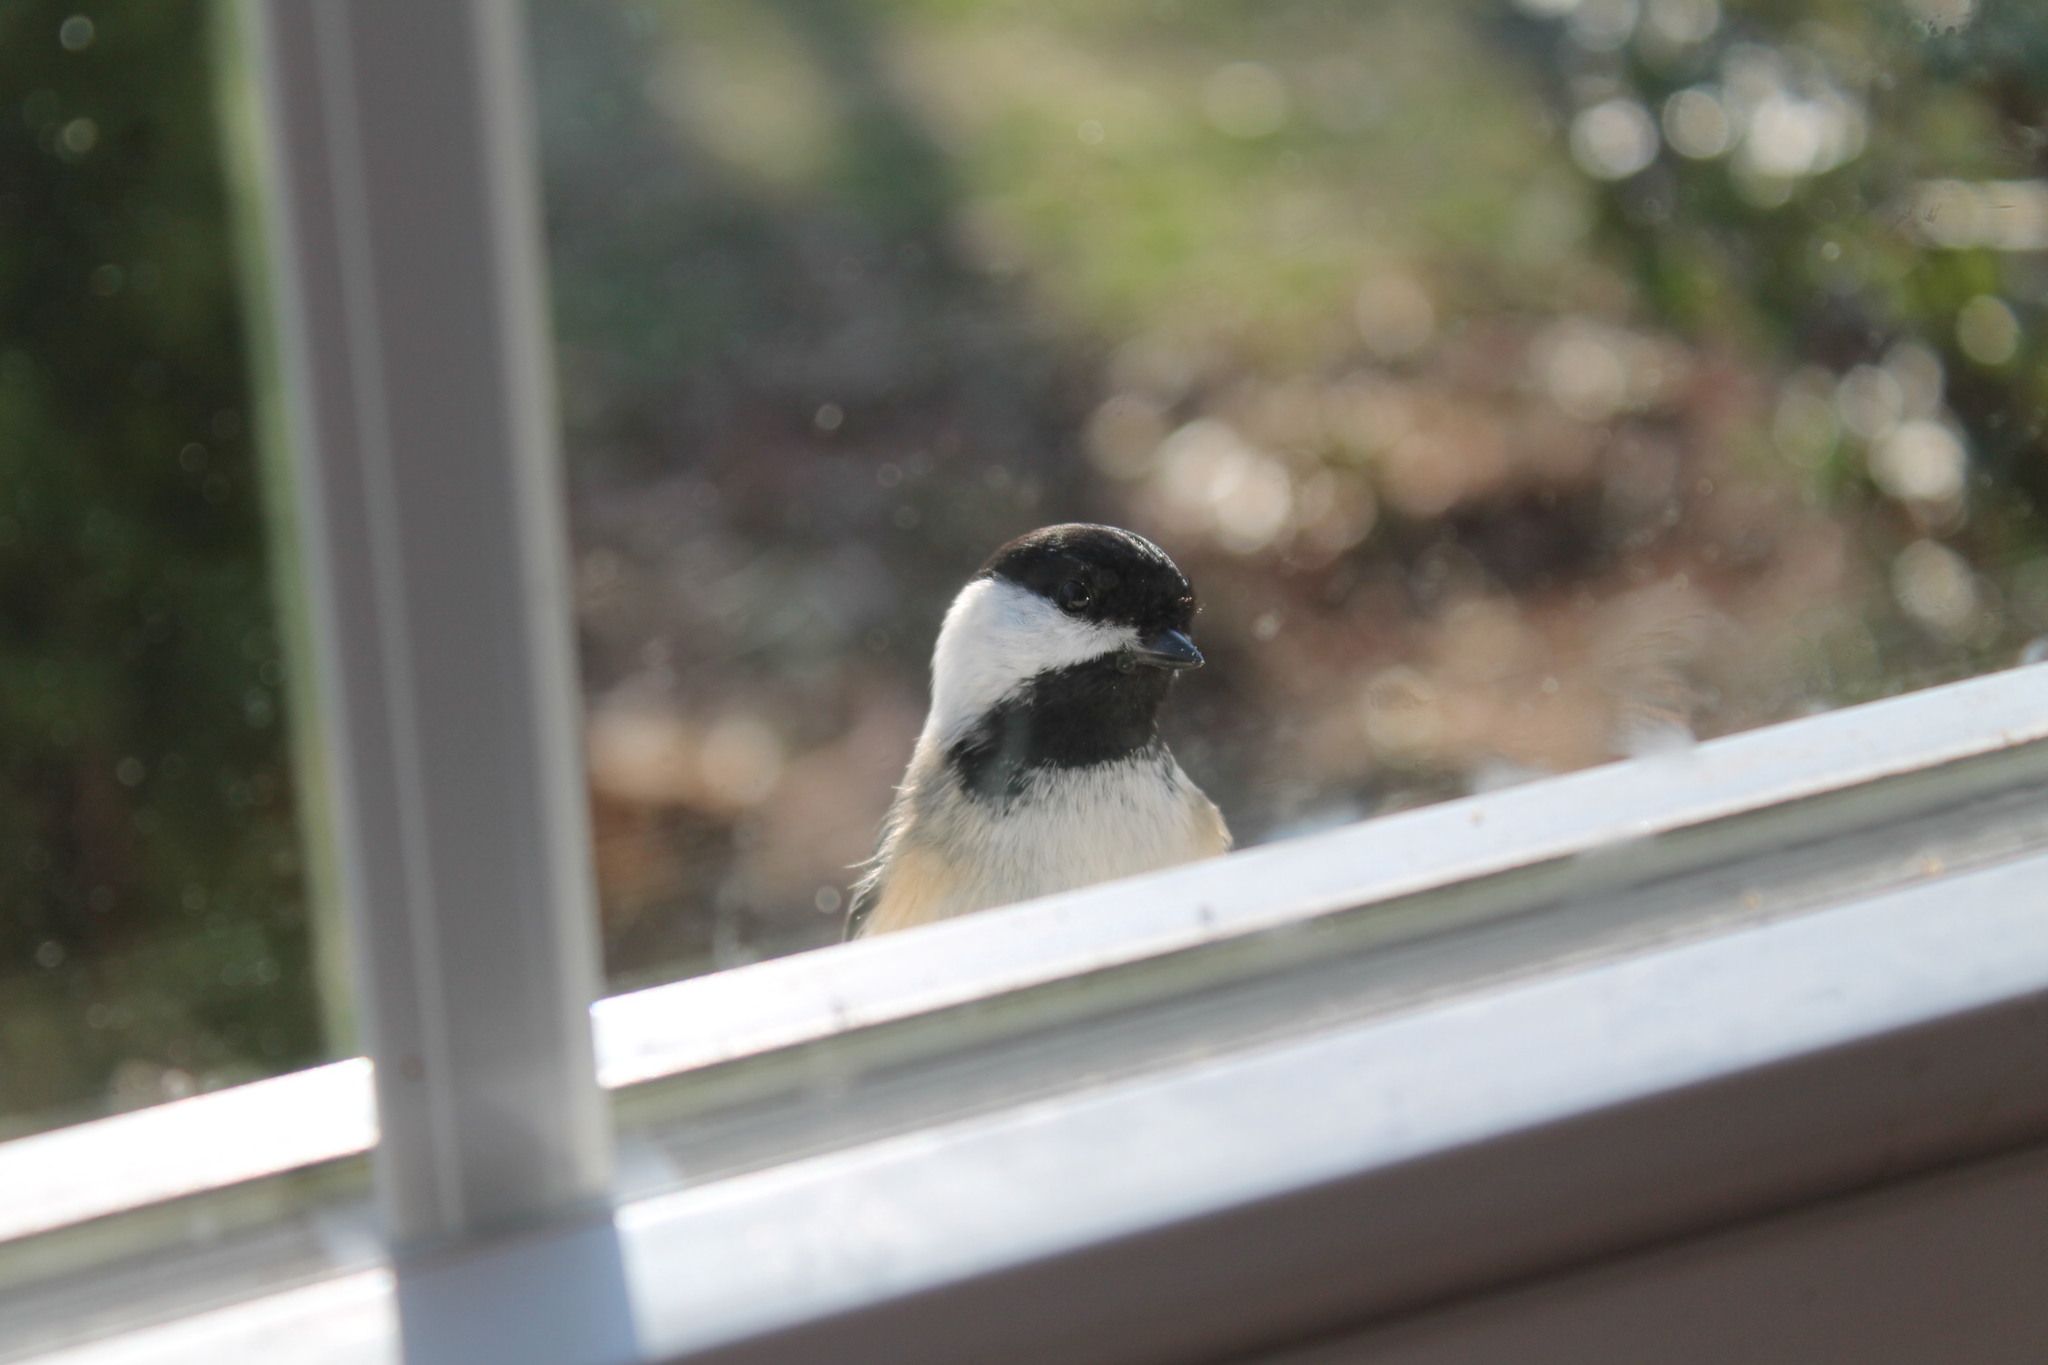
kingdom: Animalia
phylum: Chordata
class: Aves
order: Passeriformes
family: Paridae
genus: Poecile
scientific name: Poecile atricapillus
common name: Black-capped chickadee
